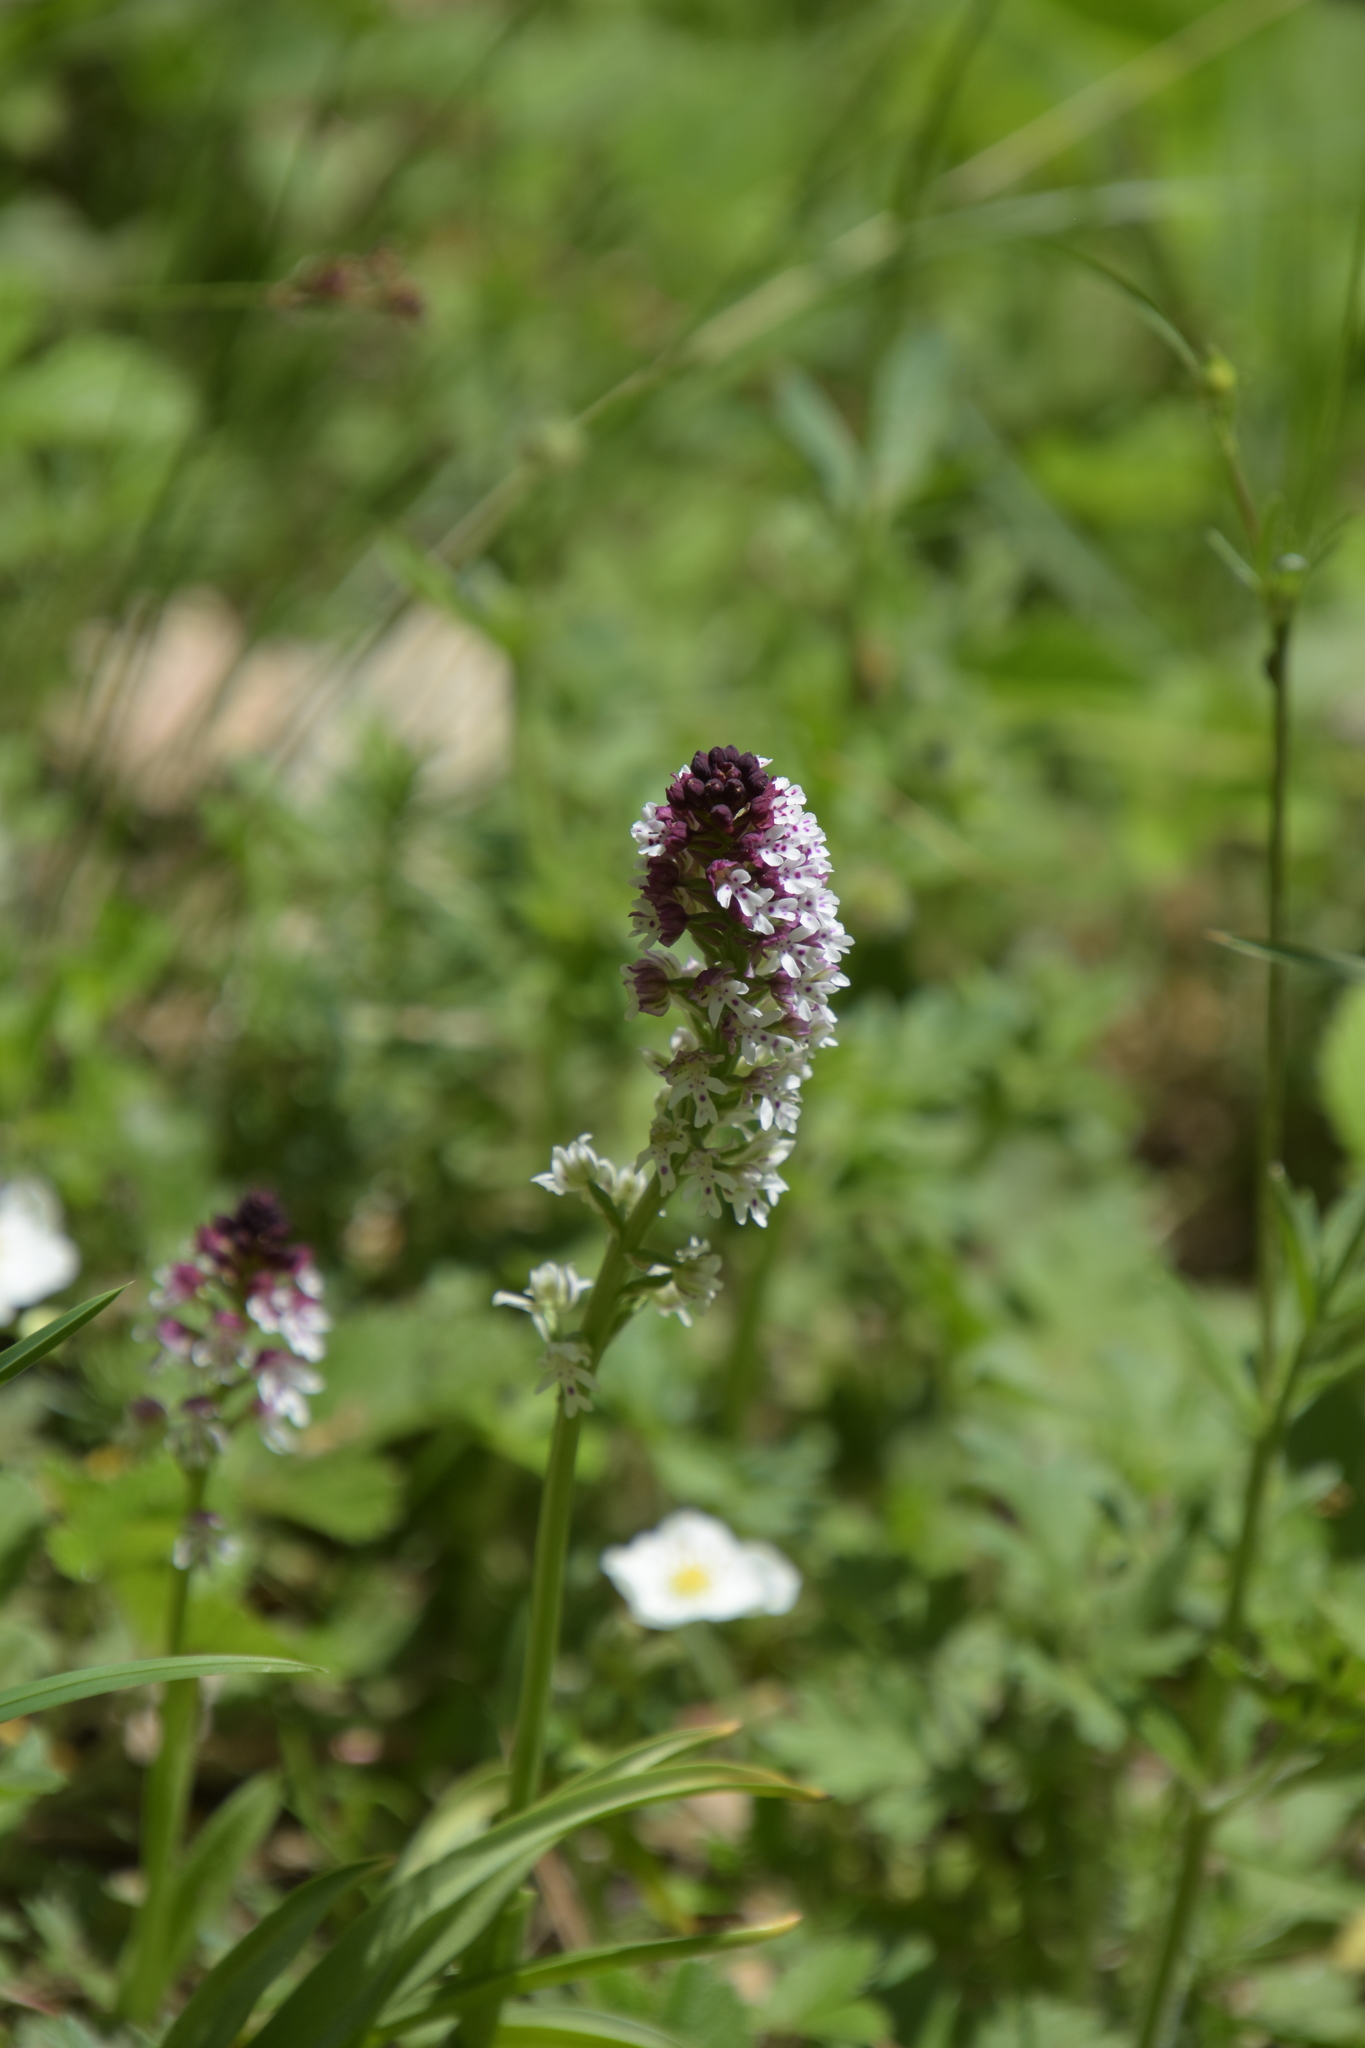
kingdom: Plantae
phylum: Tracheophyta
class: Liliopsida
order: Asparagales
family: Orchidaceae
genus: Neotinea
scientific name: Neotinea ustulata
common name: Burnt orchid
